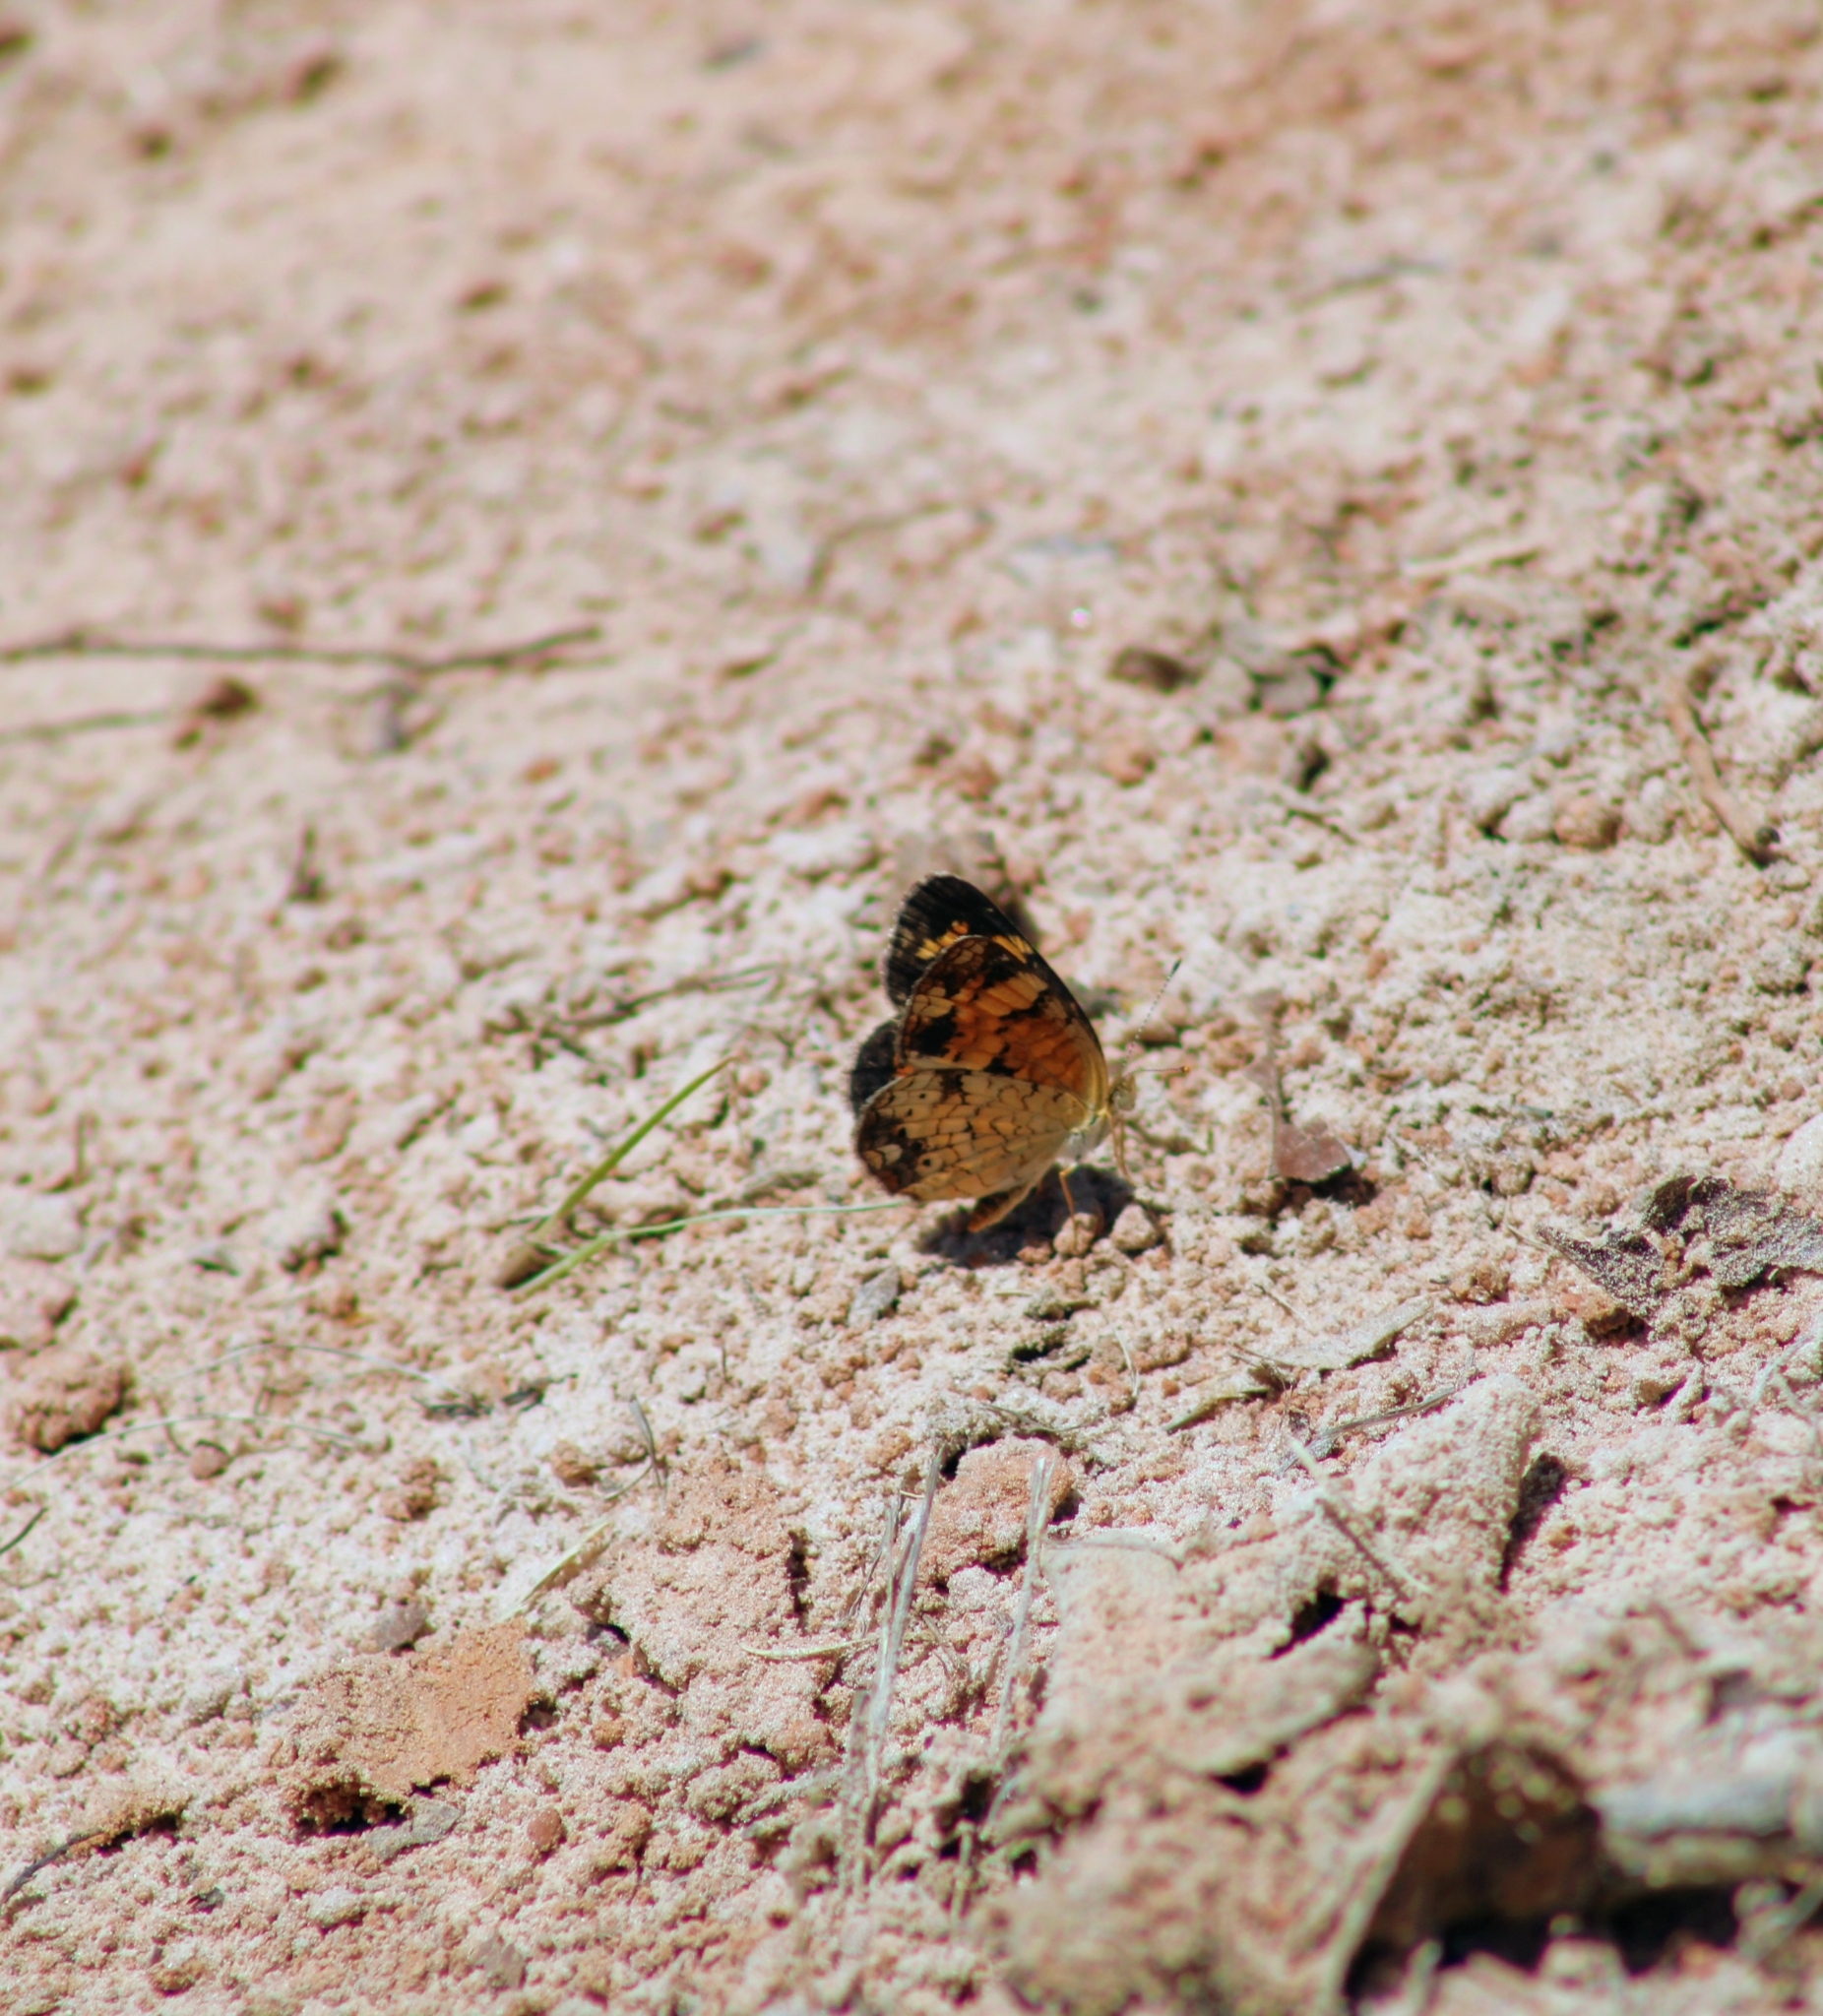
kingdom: Animalia
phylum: Arthropoda
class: Insecta
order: Lepidoptera
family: Nymphalidae
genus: Phyciodes
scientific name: Phyciodes tharos
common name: Pearl crescent
